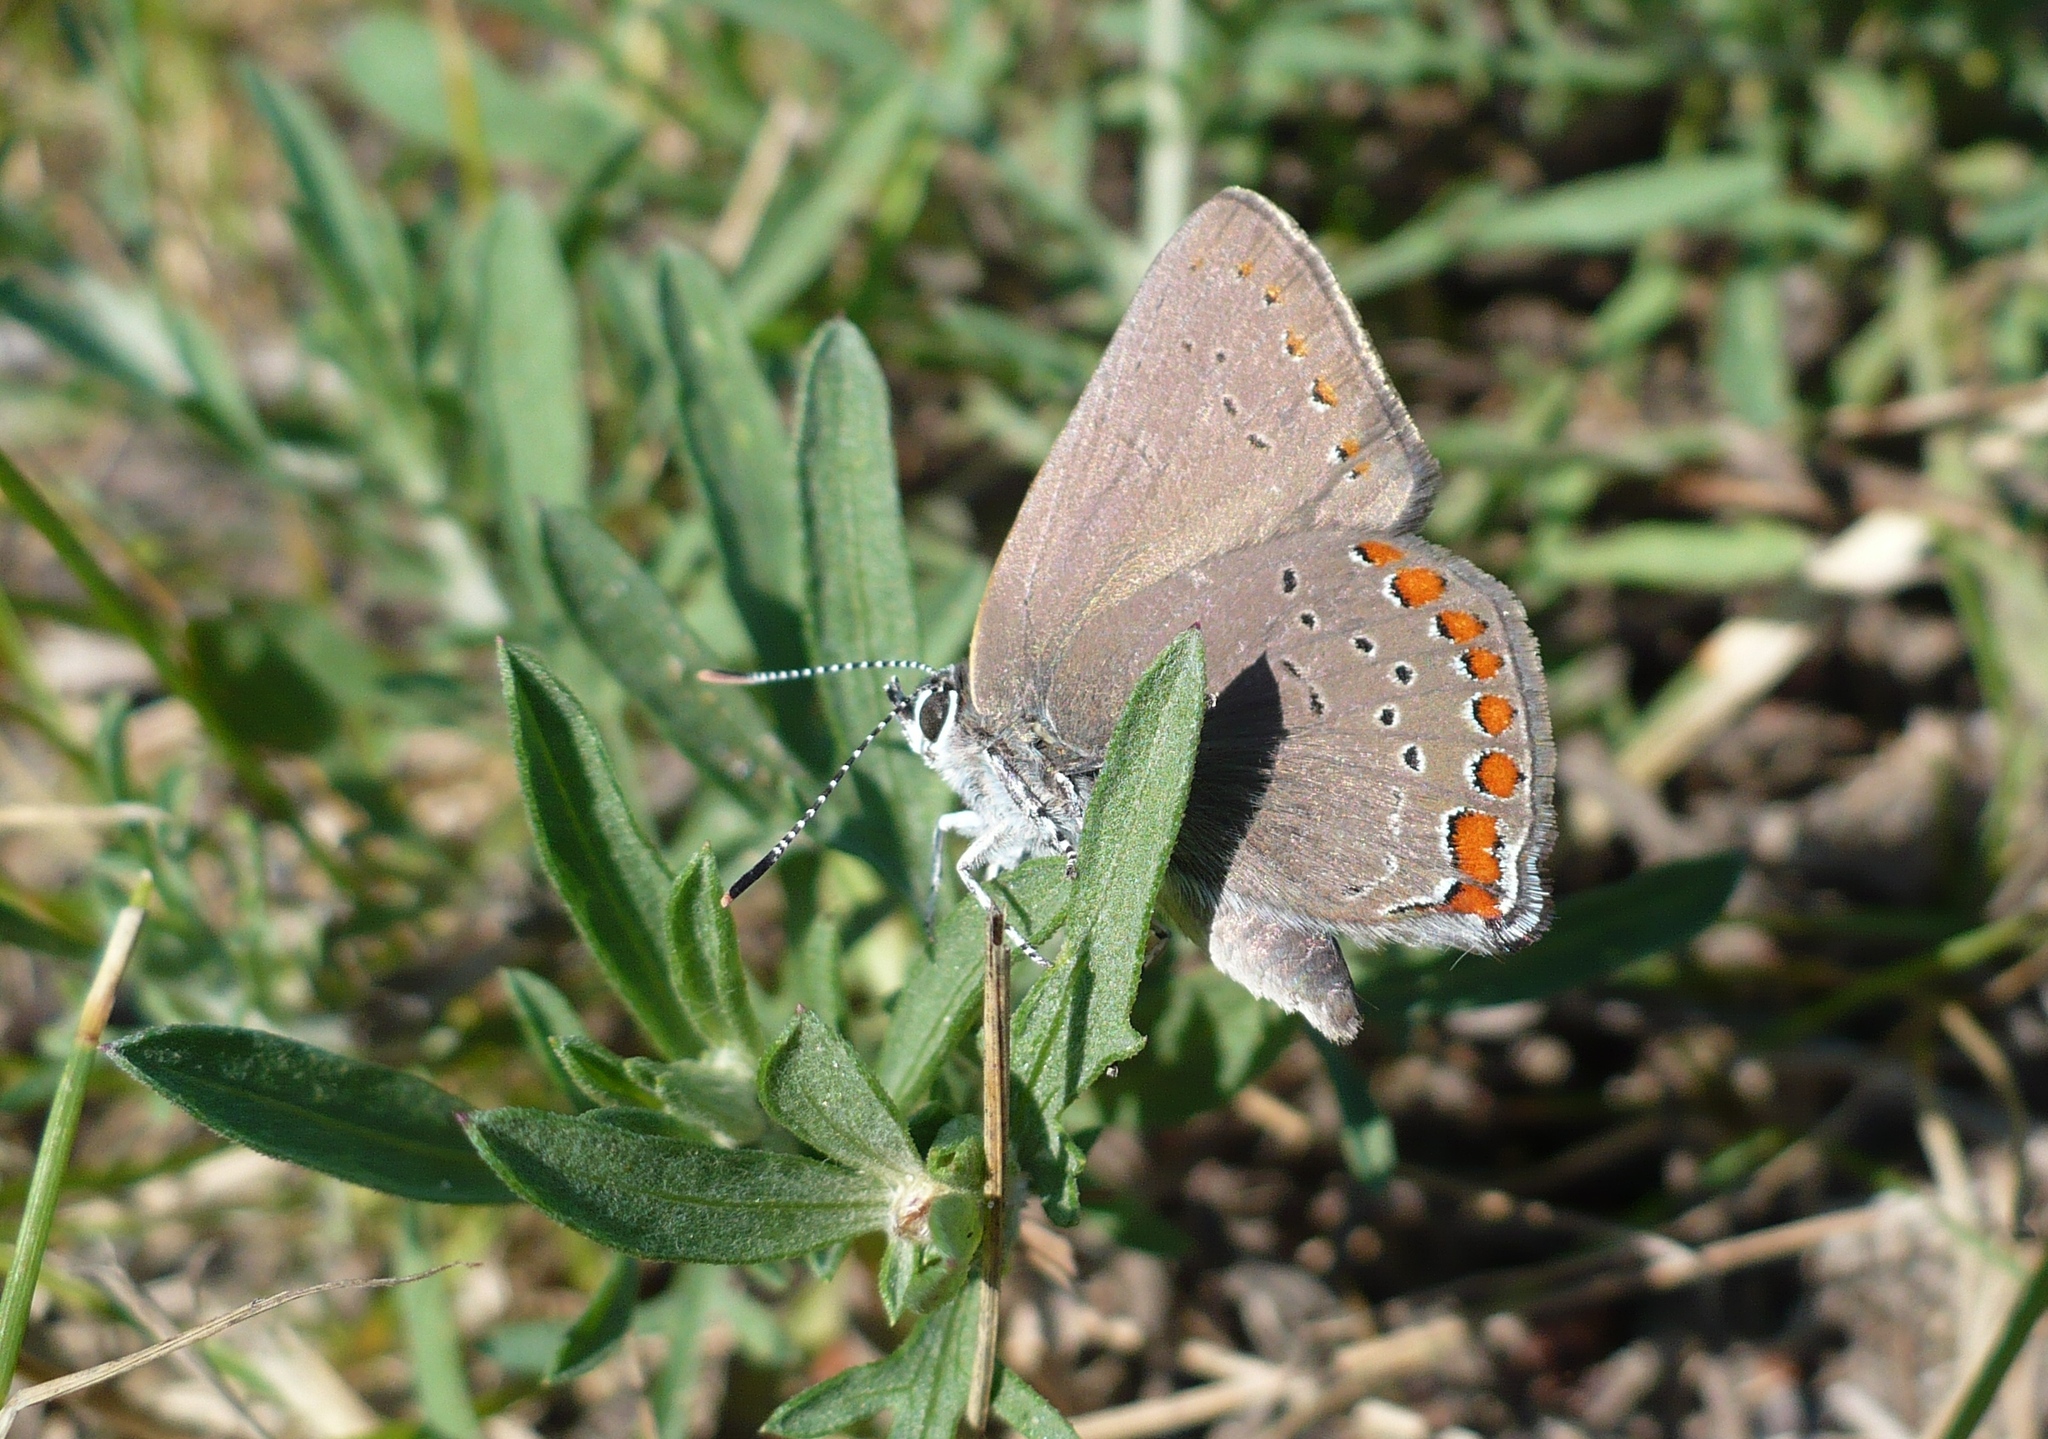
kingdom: Animalia
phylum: Arthropoda
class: Insecta
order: Lepidoptera
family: Lycaenidae
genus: Harkenclenus
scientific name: Harkenclenus titus
